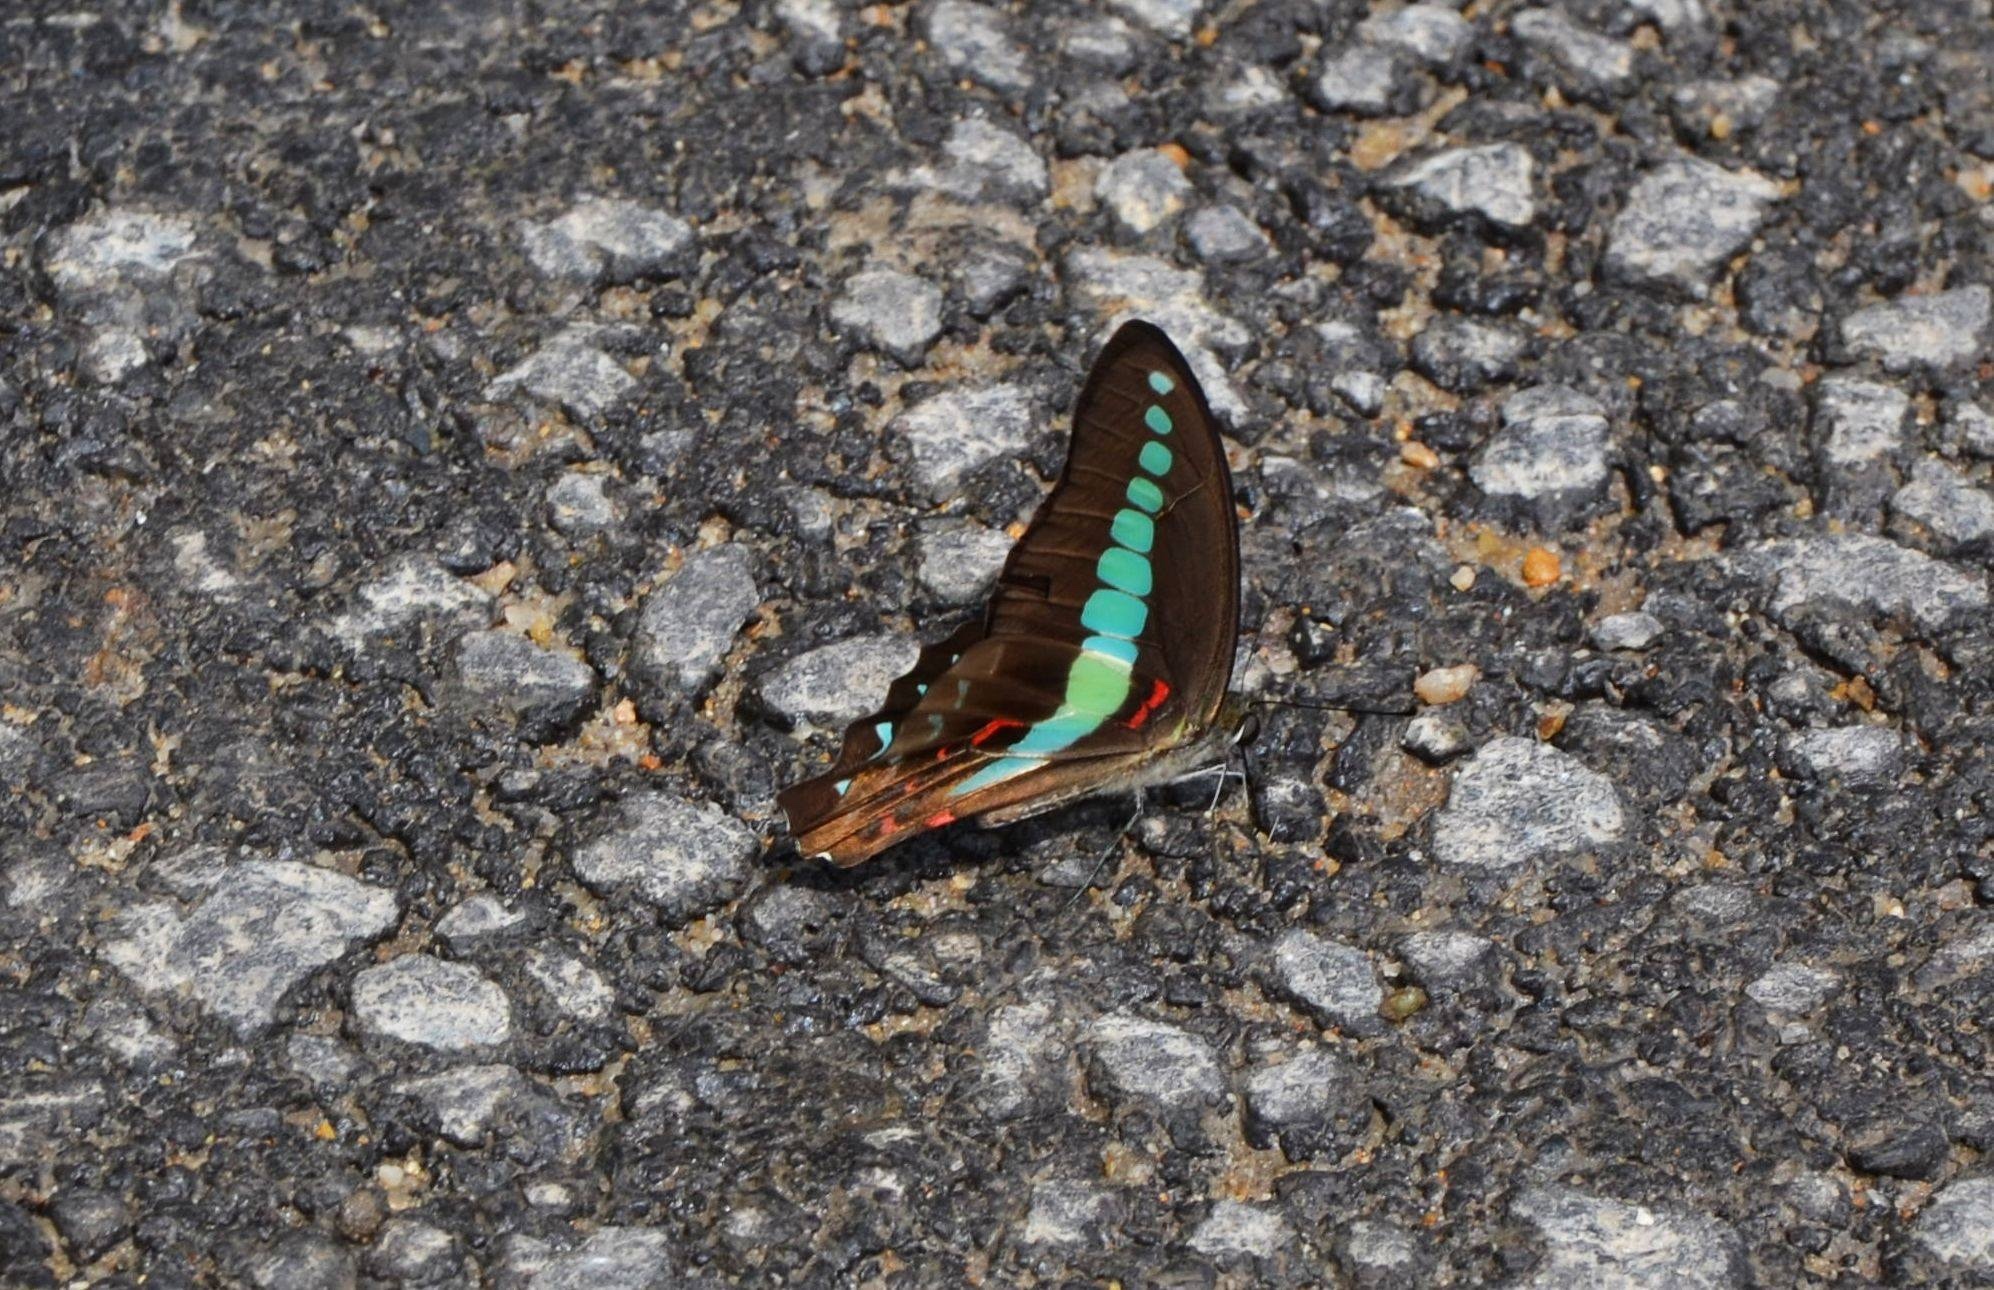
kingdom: Fungi
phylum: Ascomycota
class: Sordariomycetes
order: Microascales
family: Microascaceae
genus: Graphium
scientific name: Graphium sarpedon
